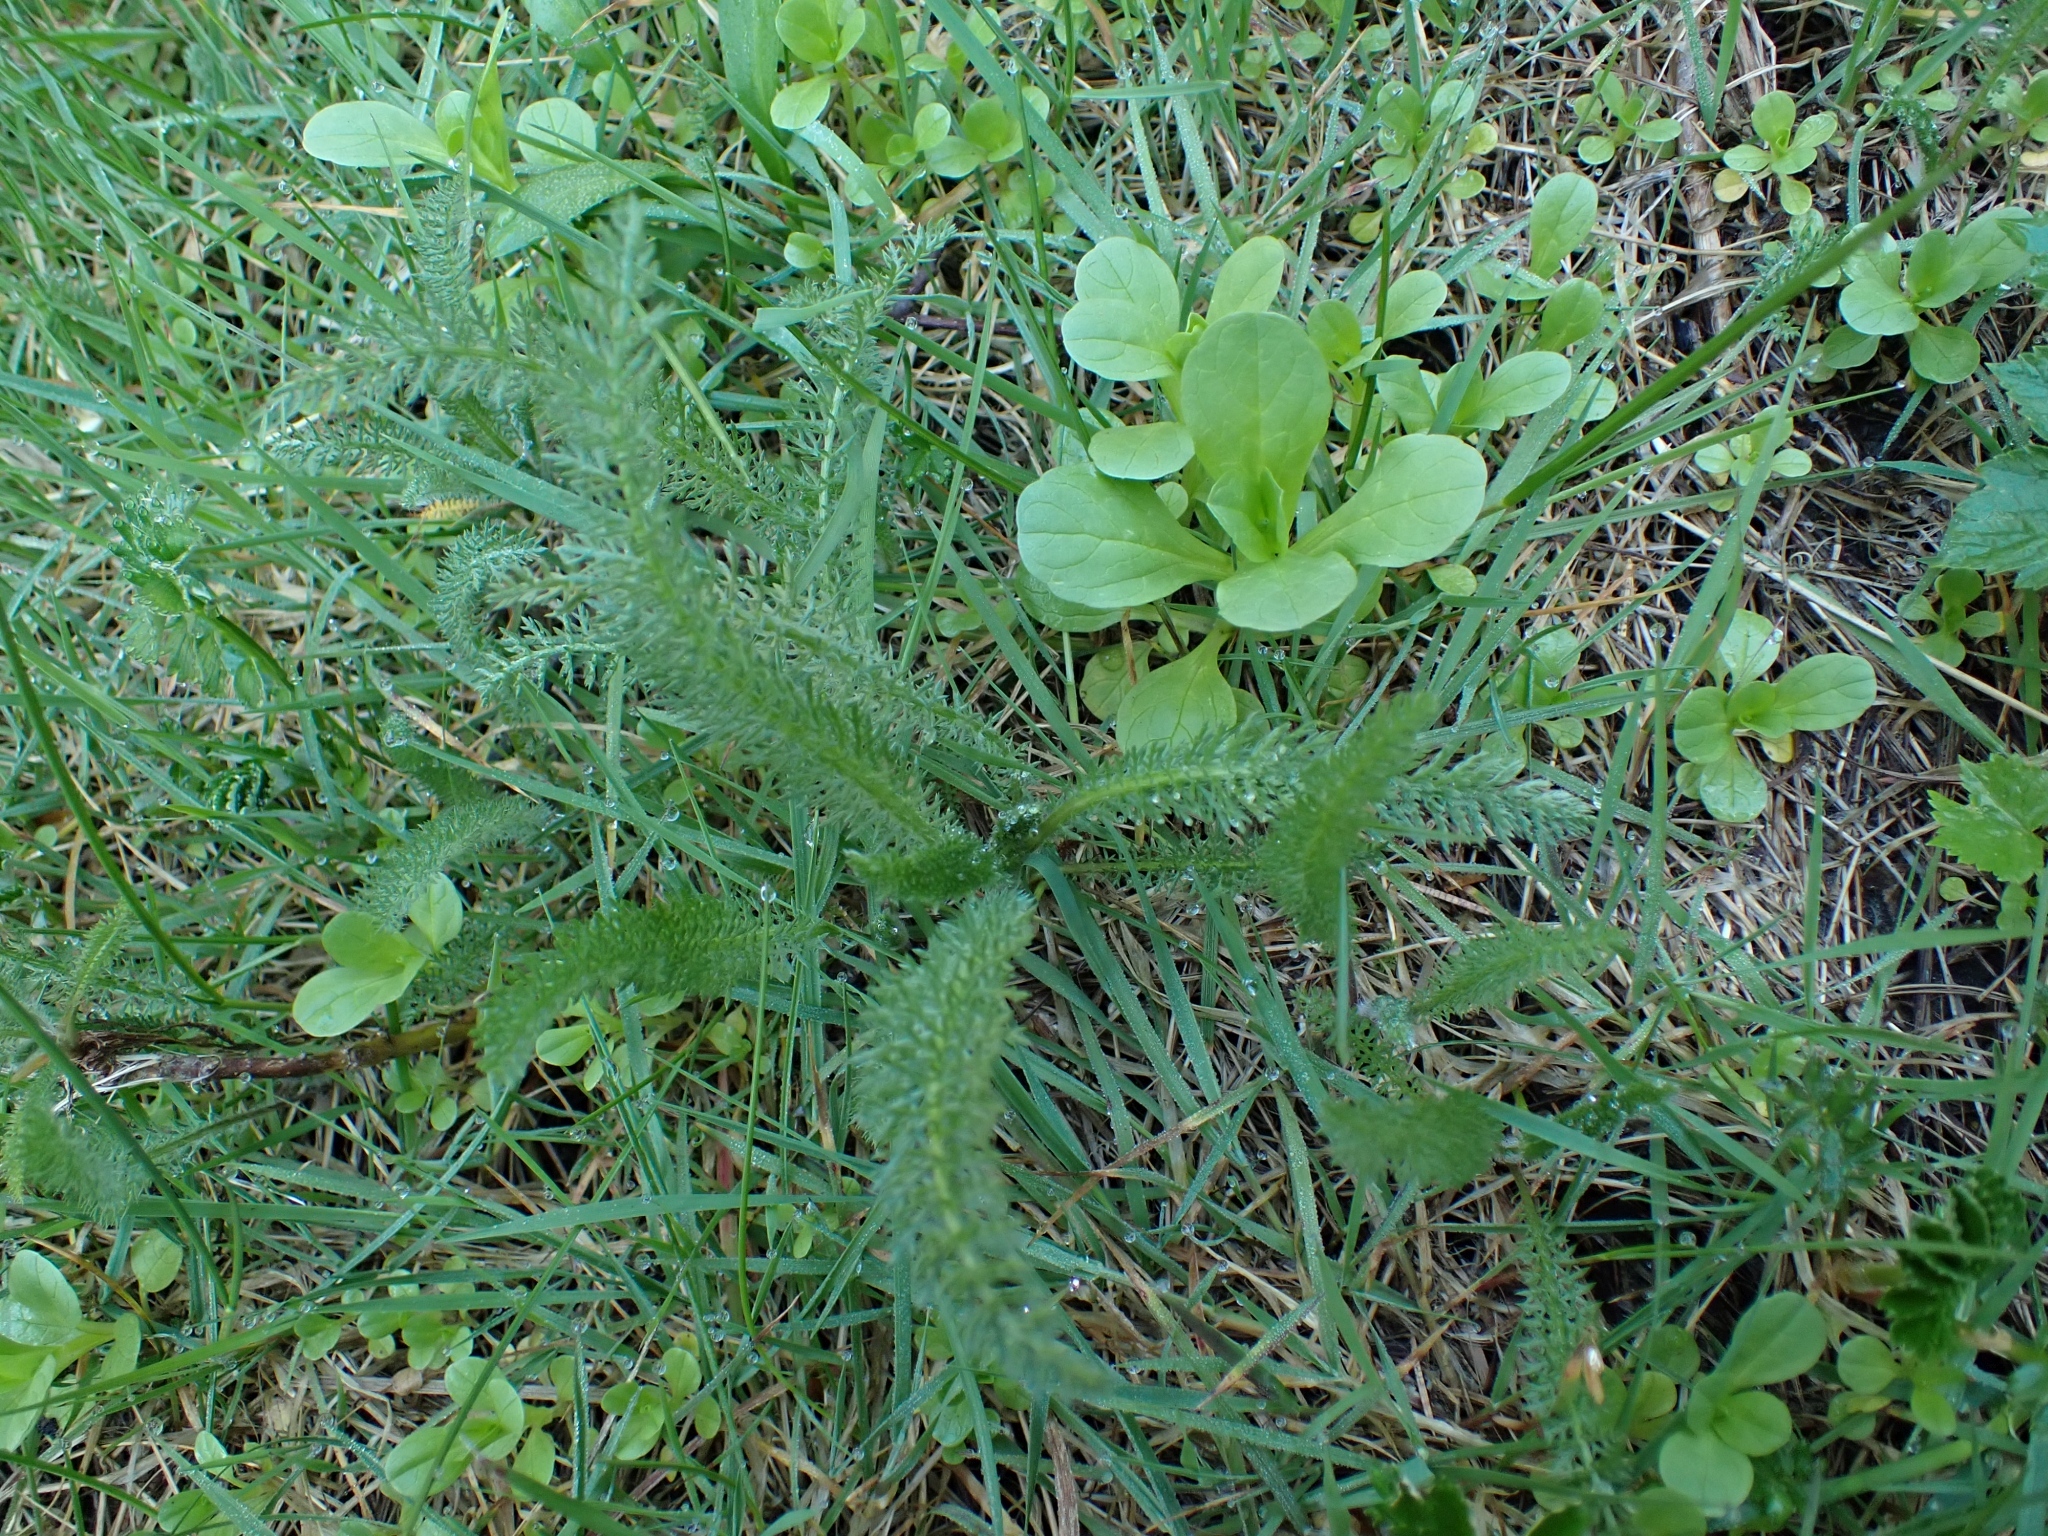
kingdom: Plantae
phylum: Tracheophyta
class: Magnoliopsida
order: Asterales
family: Asteraceae
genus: Achillea
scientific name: Achillea millefolium
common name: Yarrow
